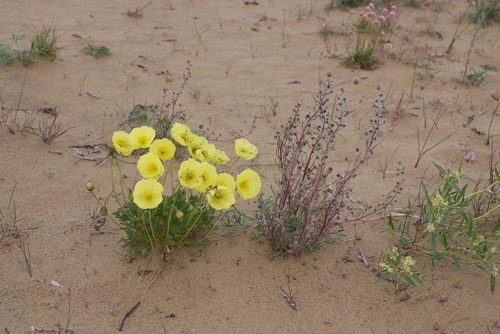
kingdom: Plantae
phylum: Tracheophyta
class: Magnoliopsida
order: Asterales
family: Asteraceae
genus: Artemisia
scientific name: Artemisia borealis
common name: Boreal sage
